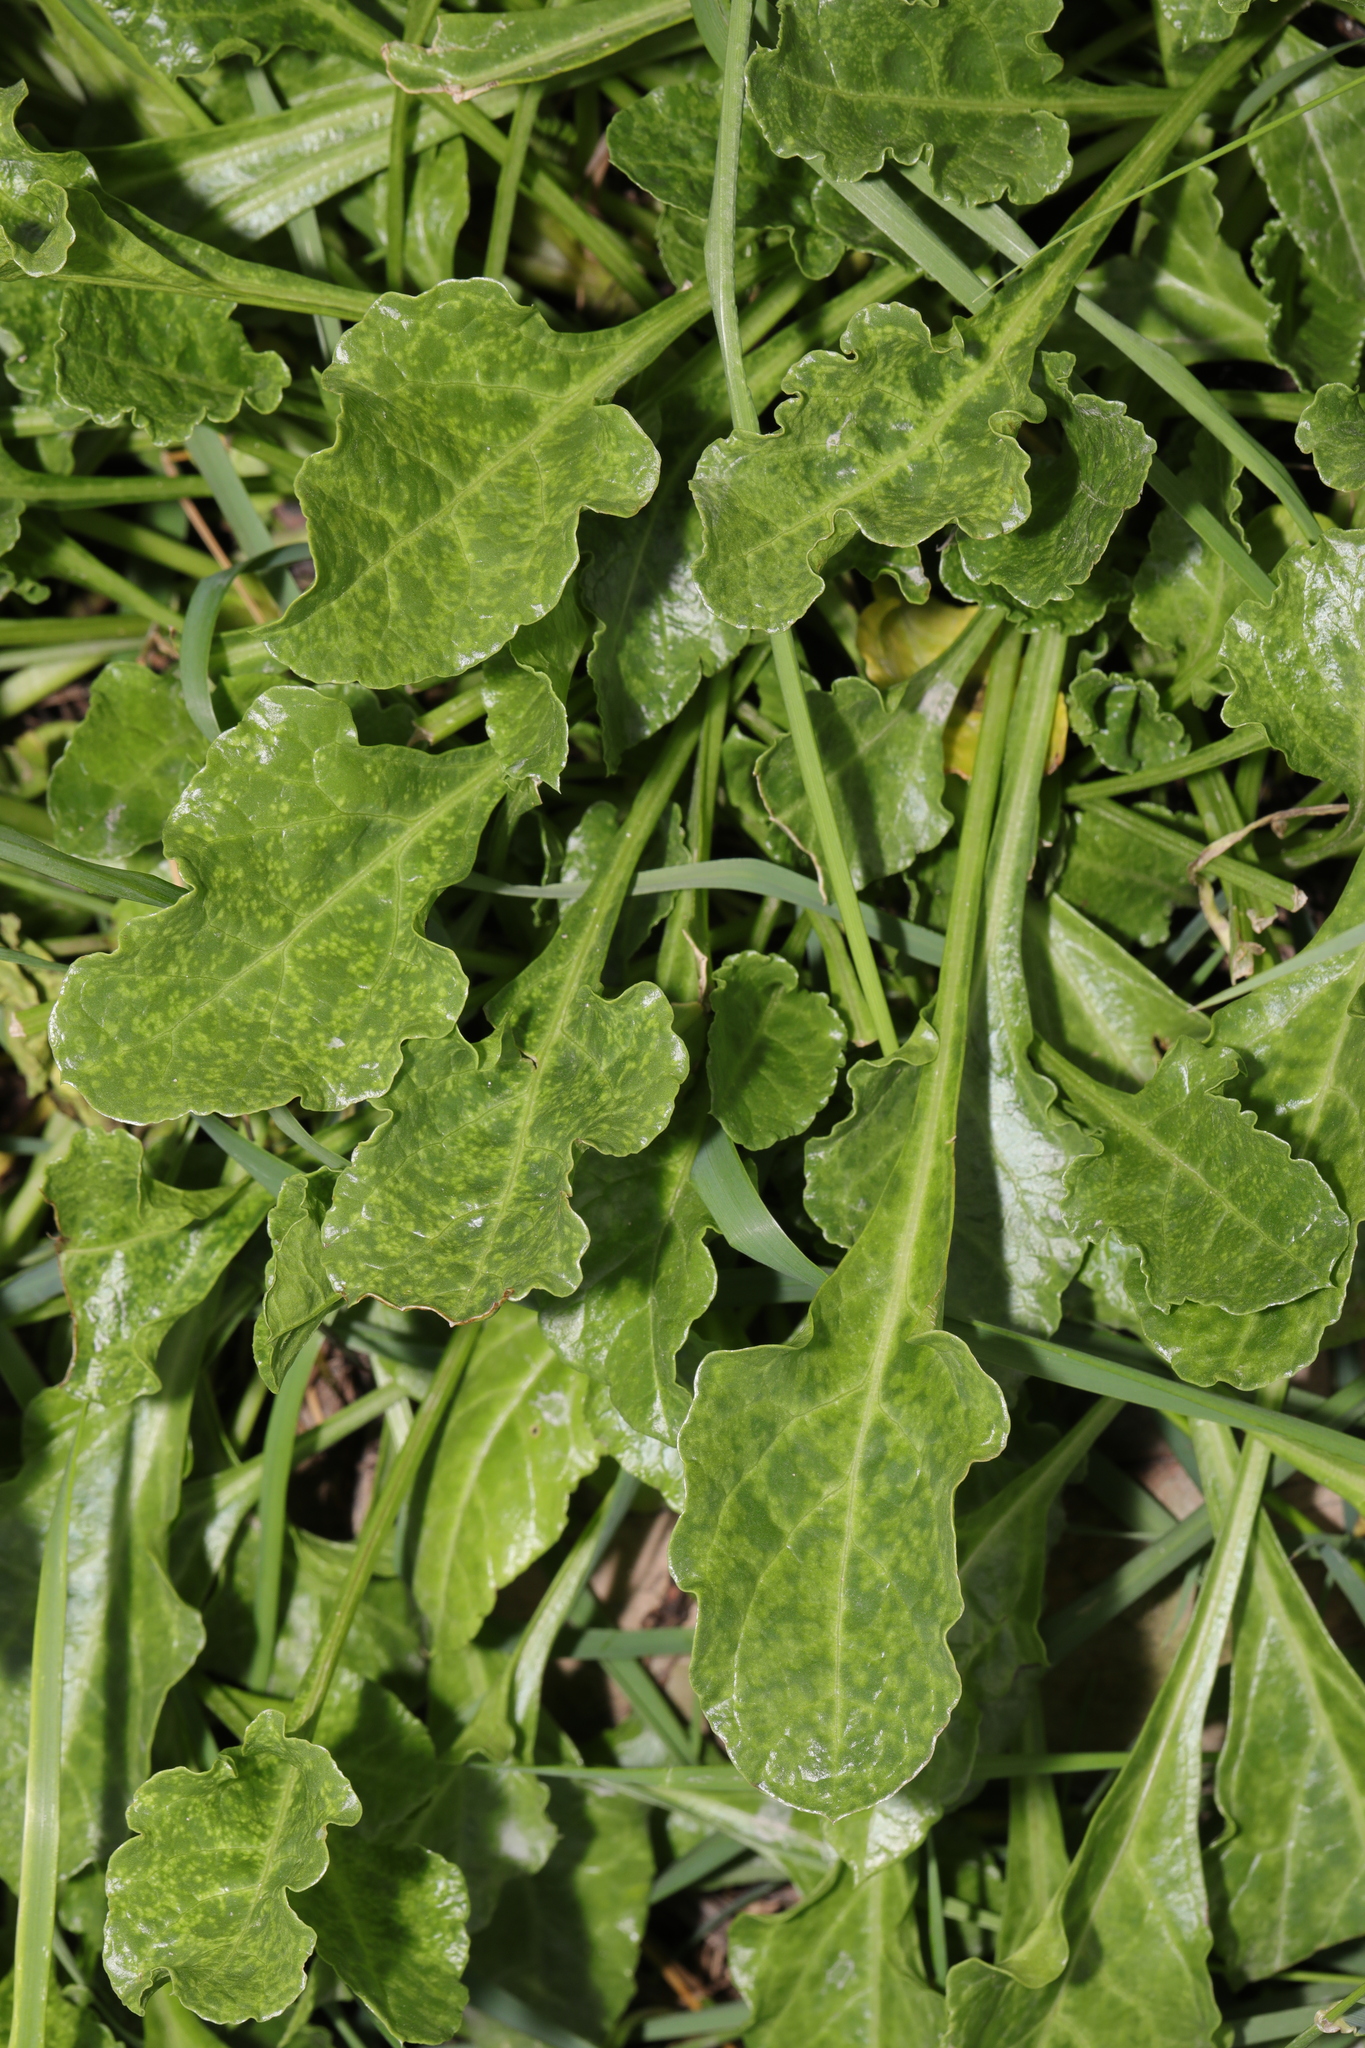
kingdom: Plantae
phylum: Tracheophyta
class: Magnoliopsida
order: Caryophyllales
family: Amaranthaceae
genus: Beta
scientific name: Beta vulgaris
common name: Beet
